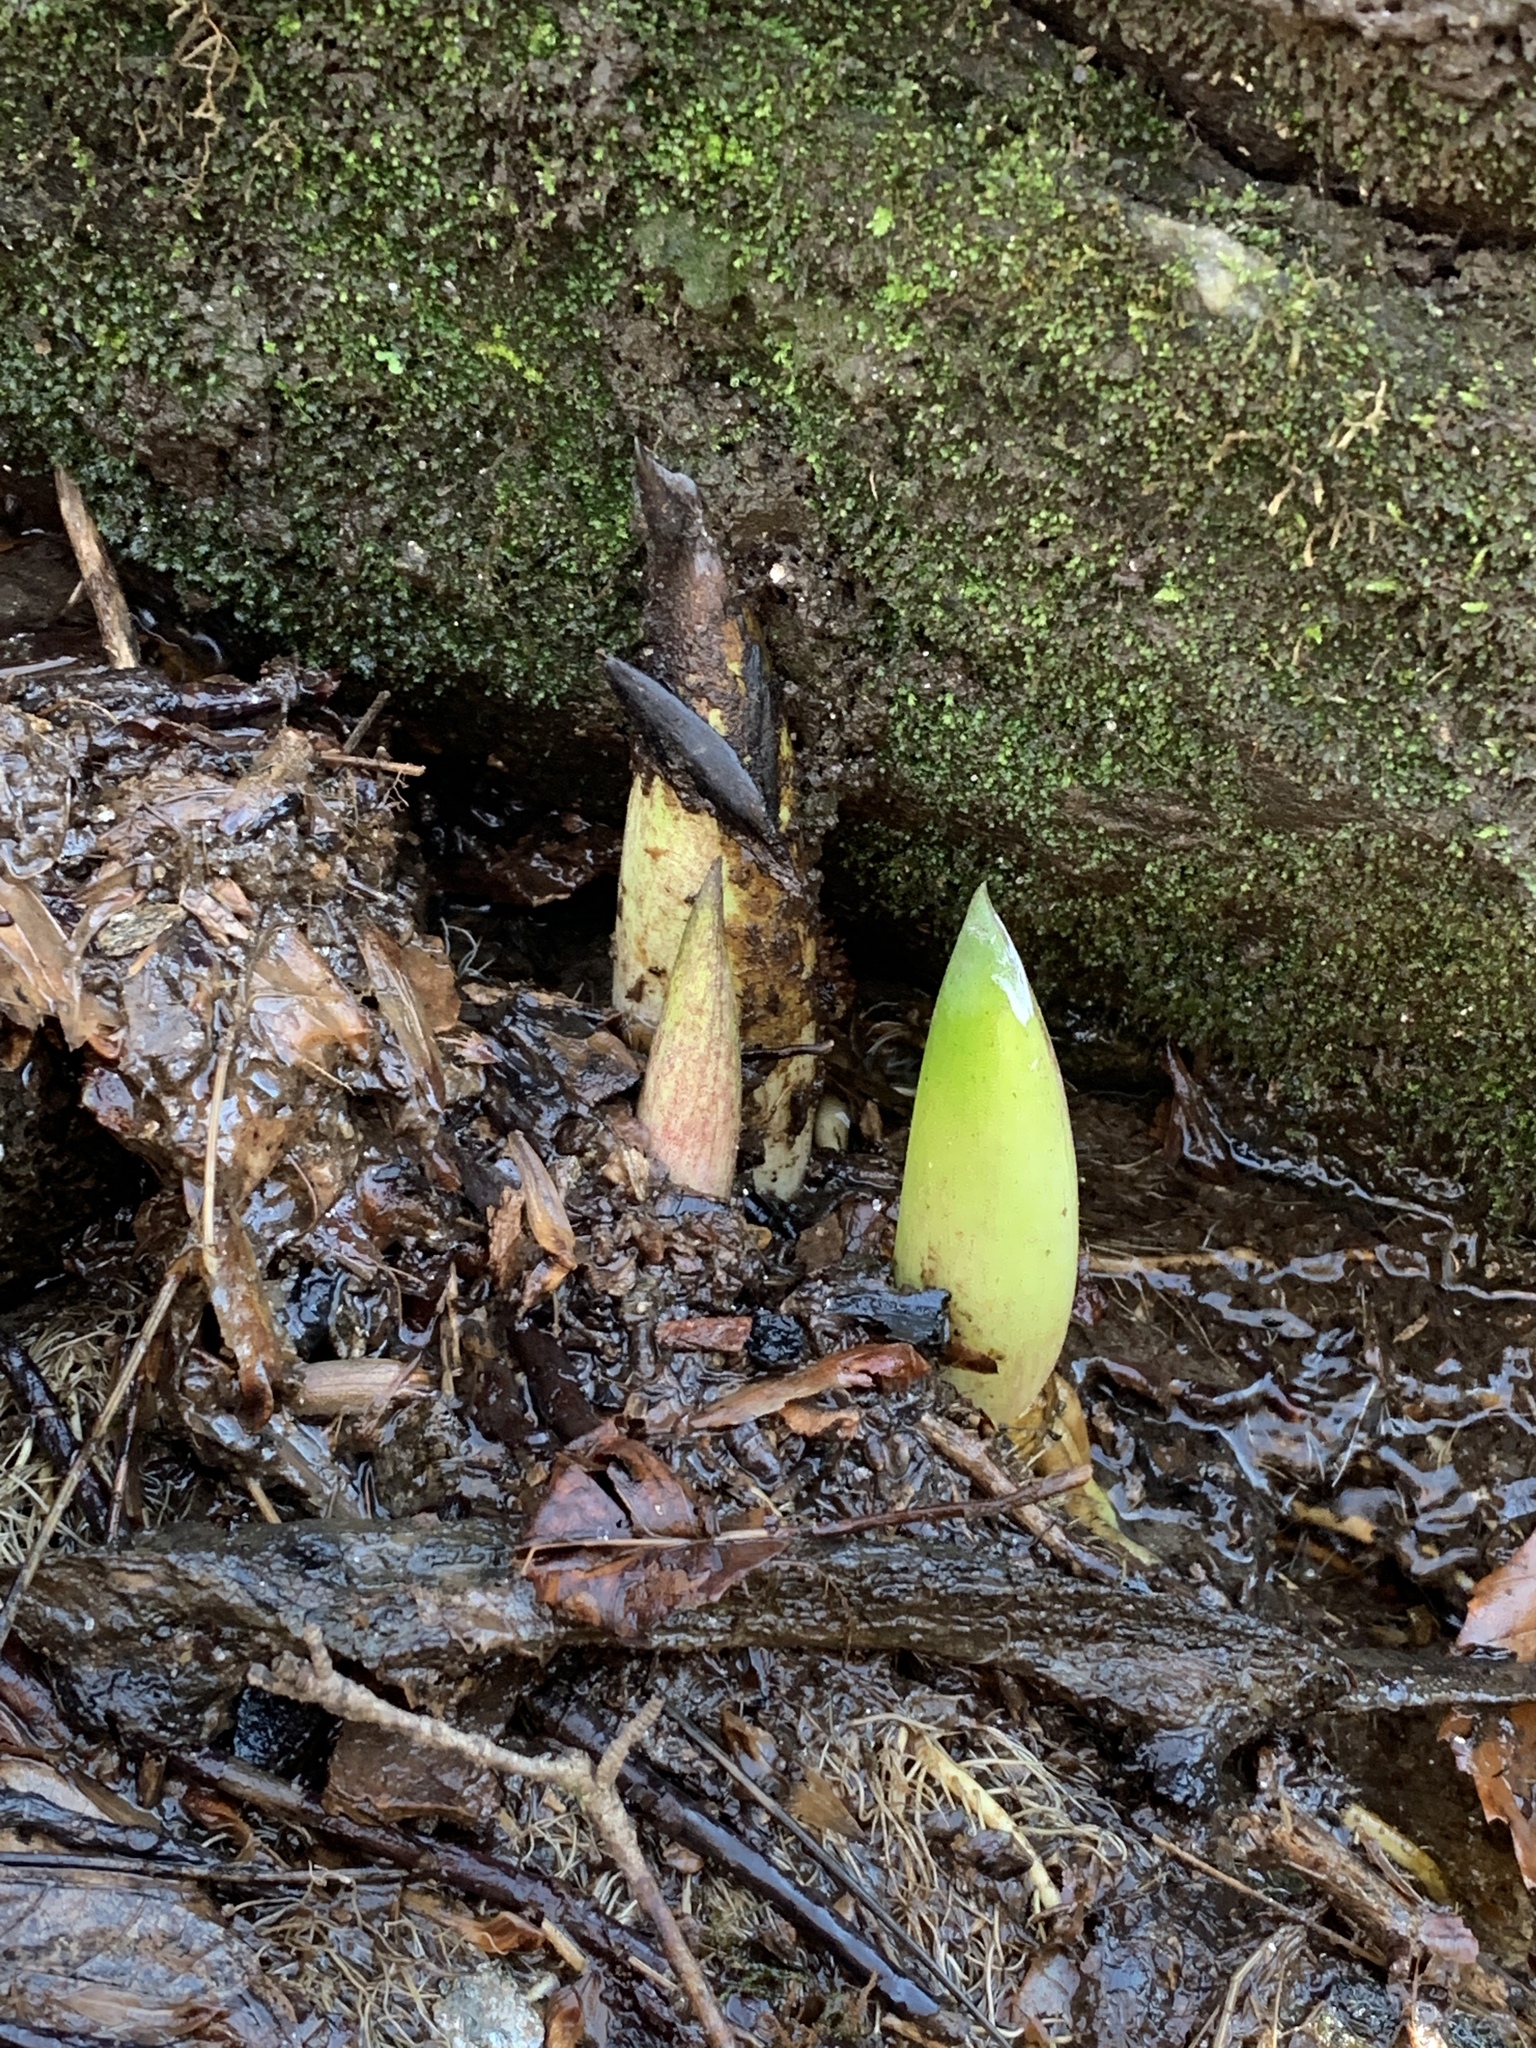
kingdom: Plantae
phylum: Tracheophyta
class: Liliopsida
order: Alismatales
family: Araceae
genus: Symplocarpus
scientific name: Symplocarpus foetidus
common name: Eastern skunk cabbage
